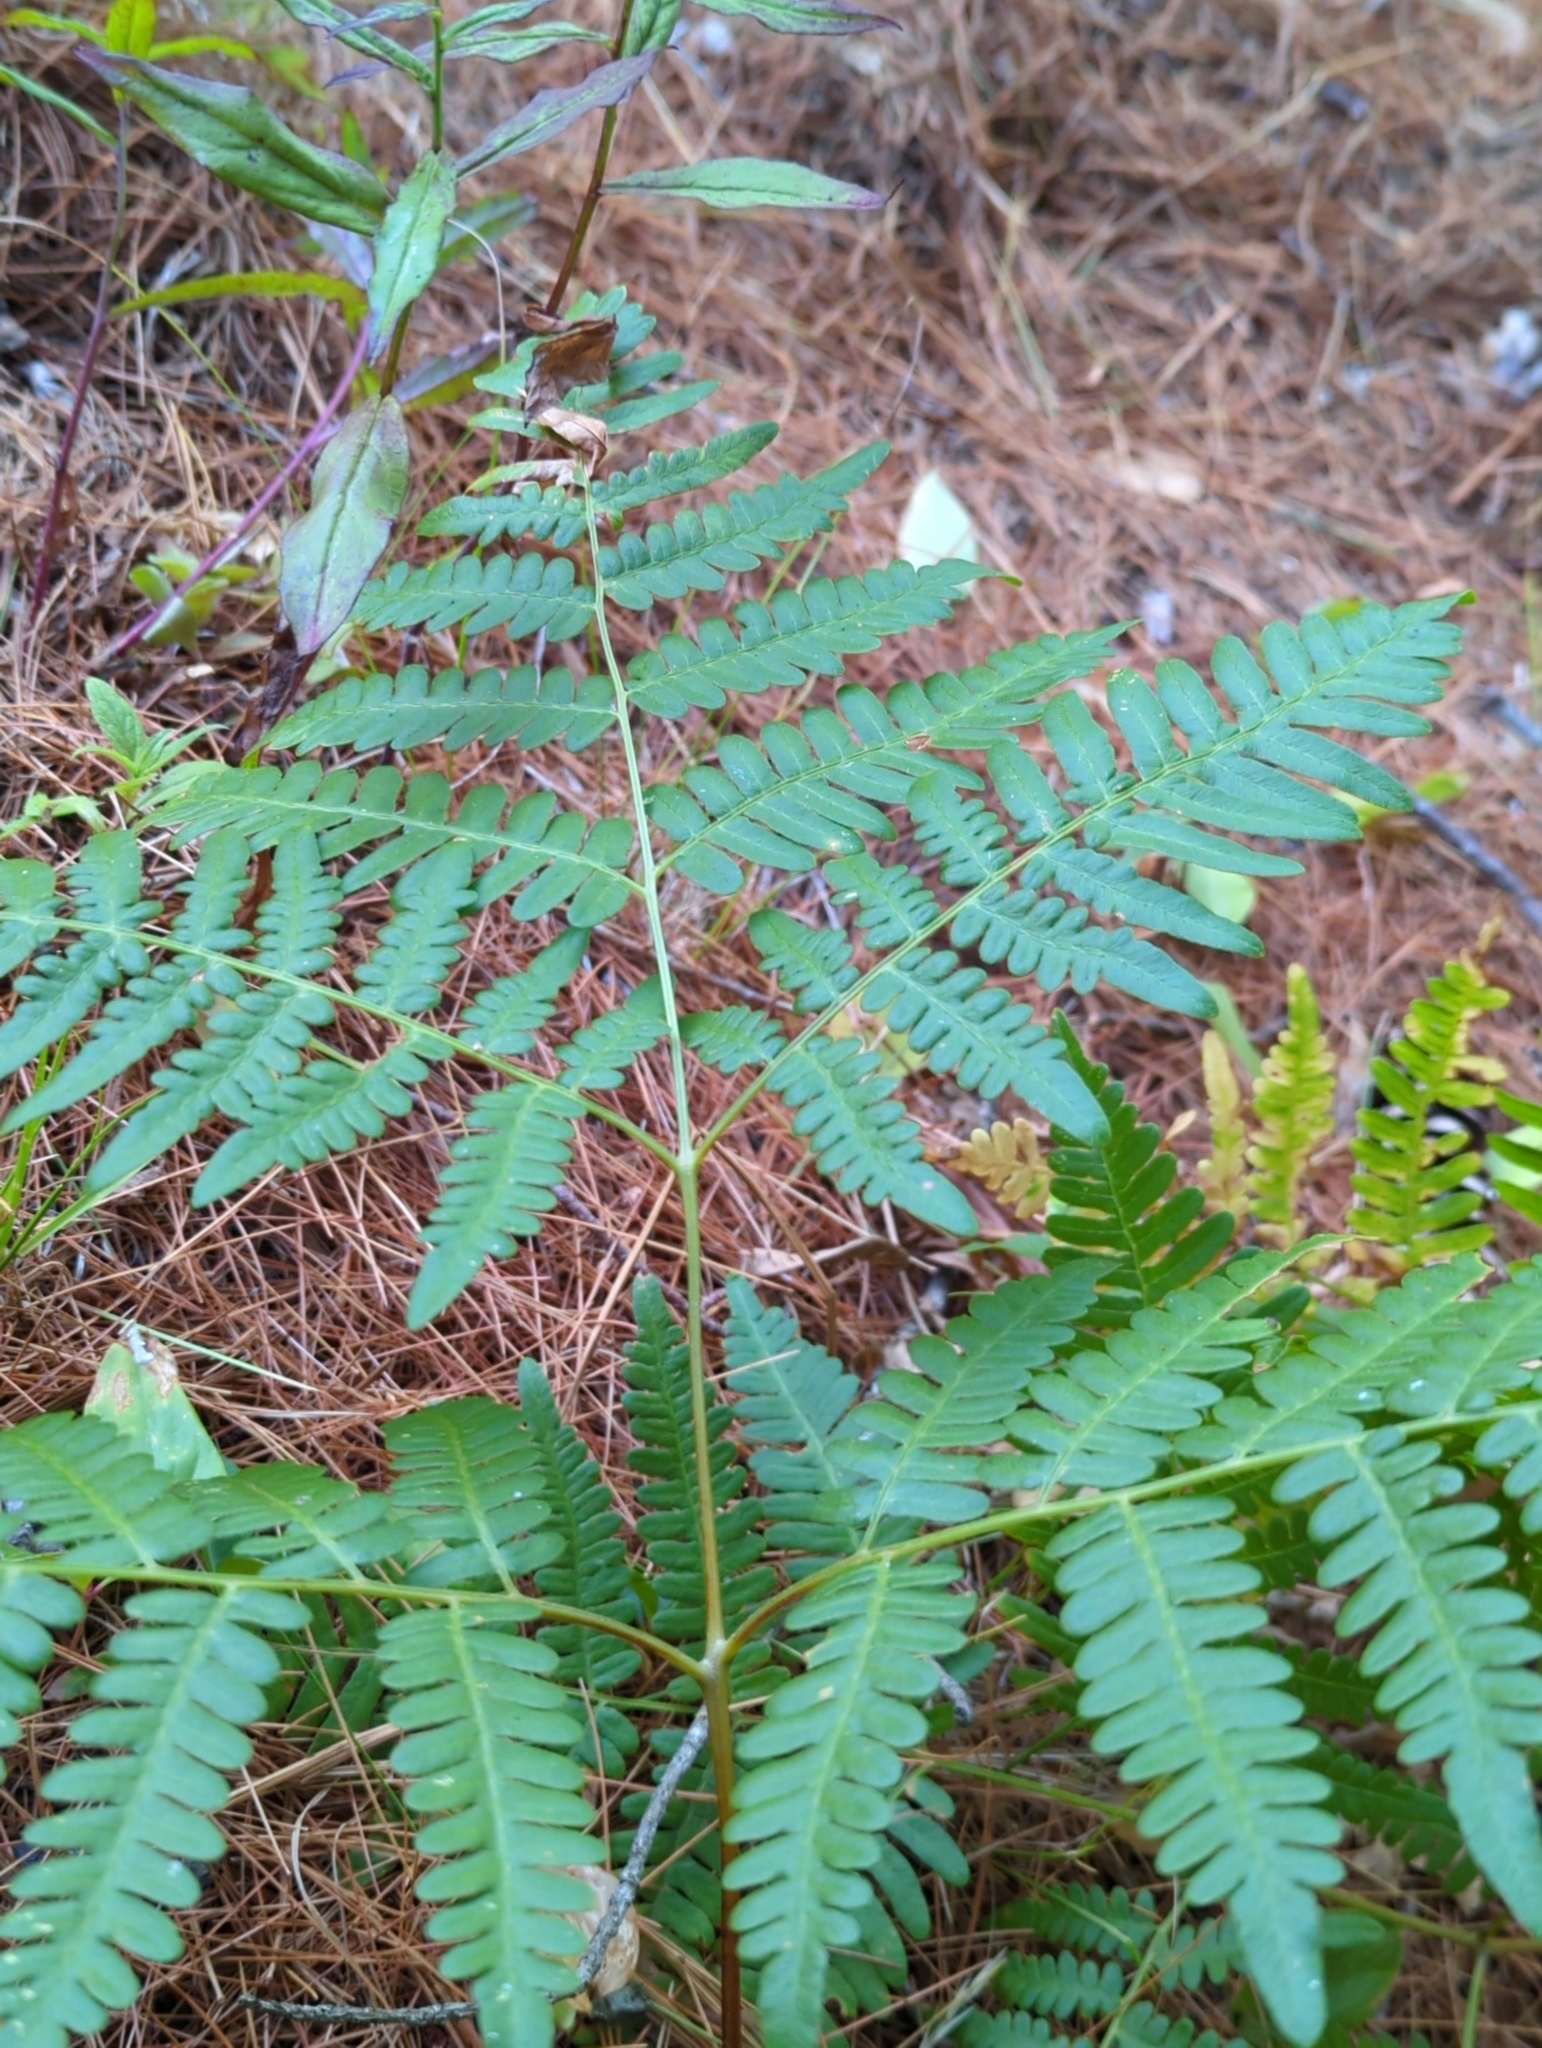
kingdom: Plantae
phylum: Tracheophyta
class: Polypodiopsida
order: Polypodiales
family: Dennstaedtiaceae
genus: Pteridium
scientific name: Pteridium aquilinum
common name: Bracken
